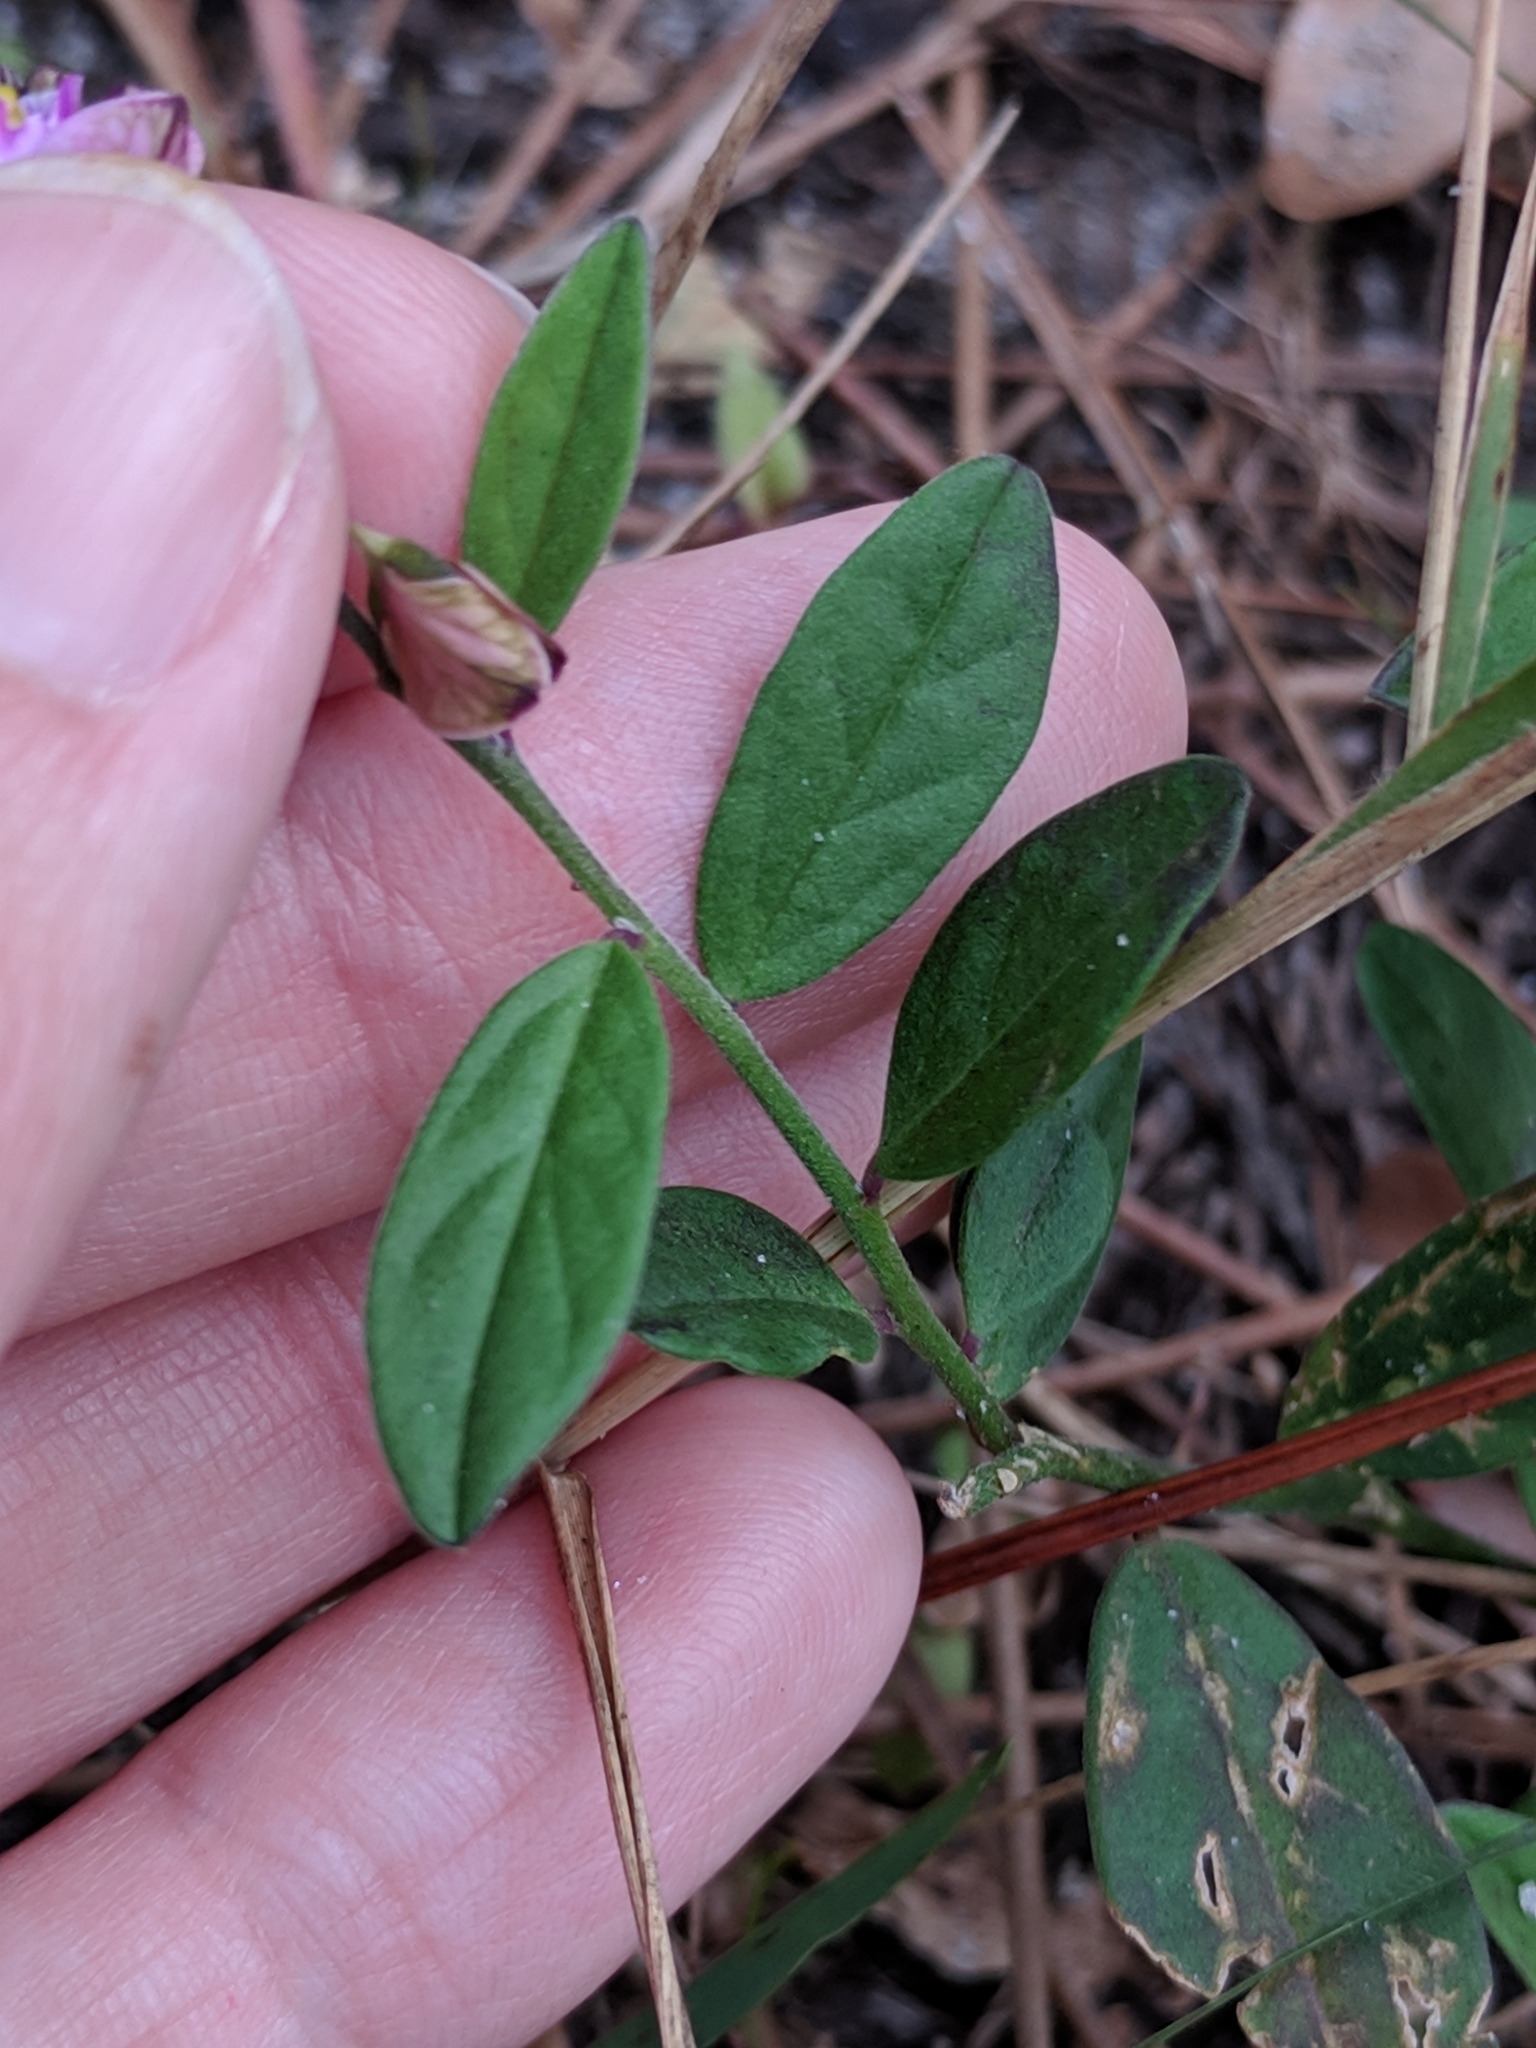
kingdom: Plantae
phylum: Tracheophyta
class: Magnoliopsida
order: Fabales
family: Polygalaceae
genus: Asemeia
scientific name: Asemeia grandiflora
